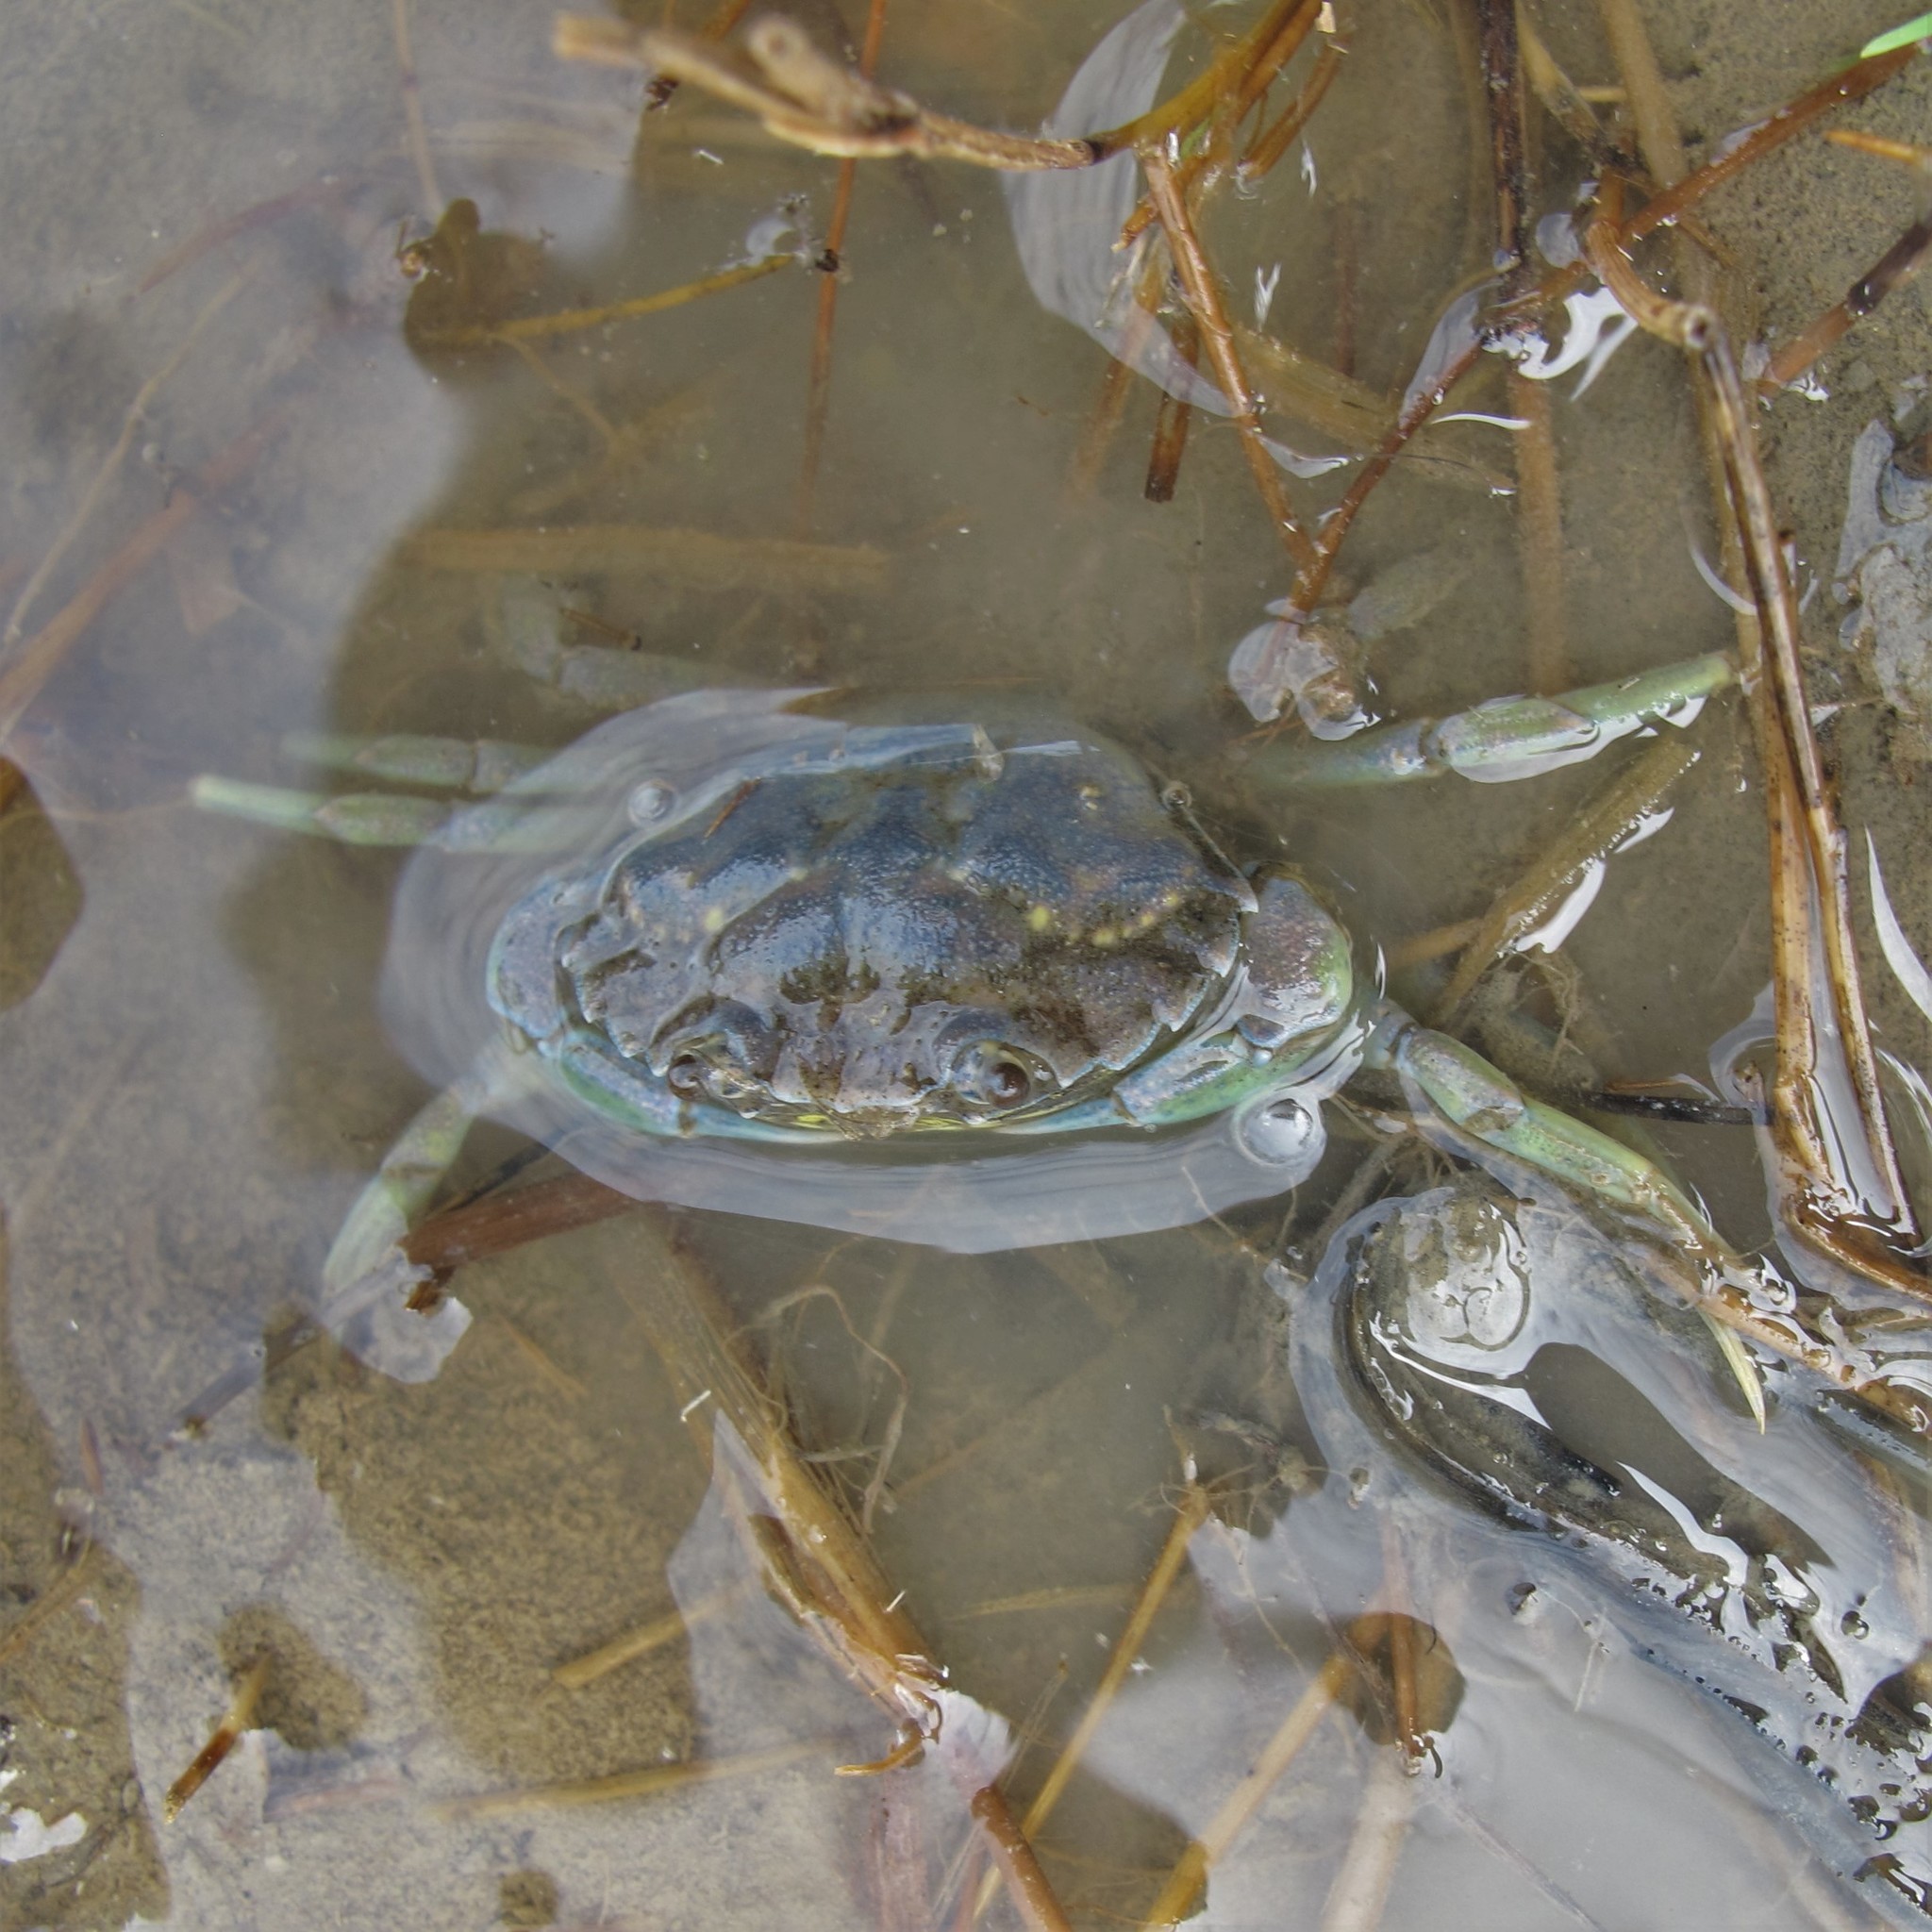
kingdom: Animalia
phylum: Arthropoda
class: Malacostraca
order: Decapoda
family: Carcinidae
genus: Carcinus
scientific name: Carcinus maenas
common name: European green crab
